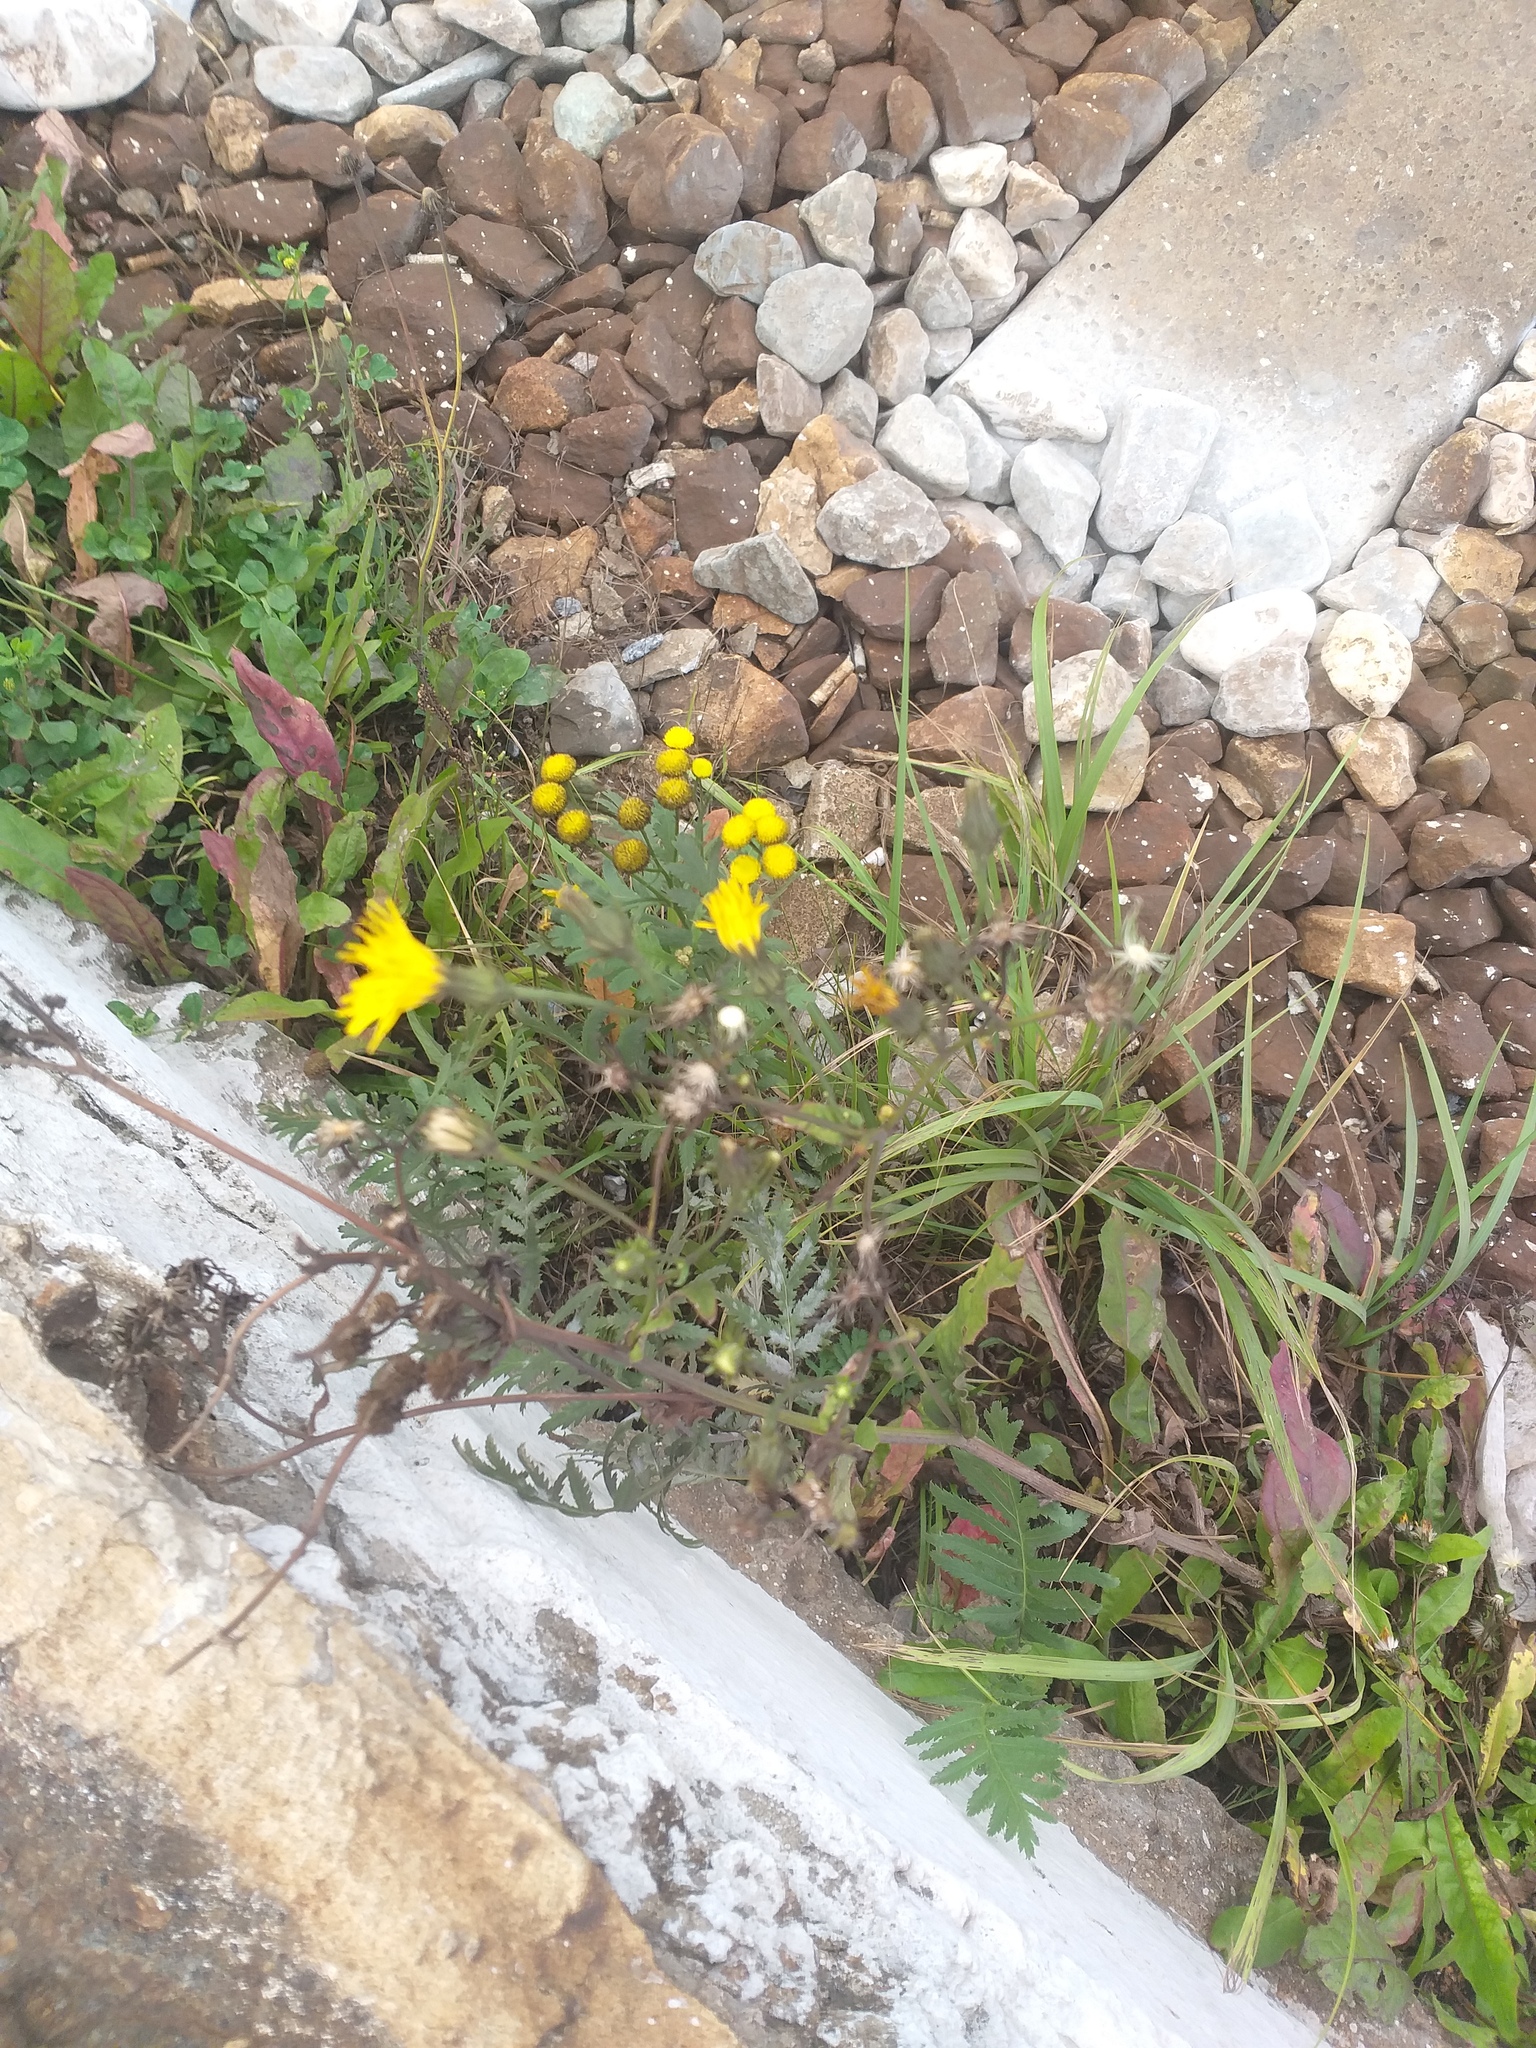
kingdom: Plantae
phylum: Tracheophyta
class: Magnoliopsida
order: Asterales
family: Asteraceae
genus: Tanacetum
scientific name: Tanacetum vulgare
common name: Common tansy
